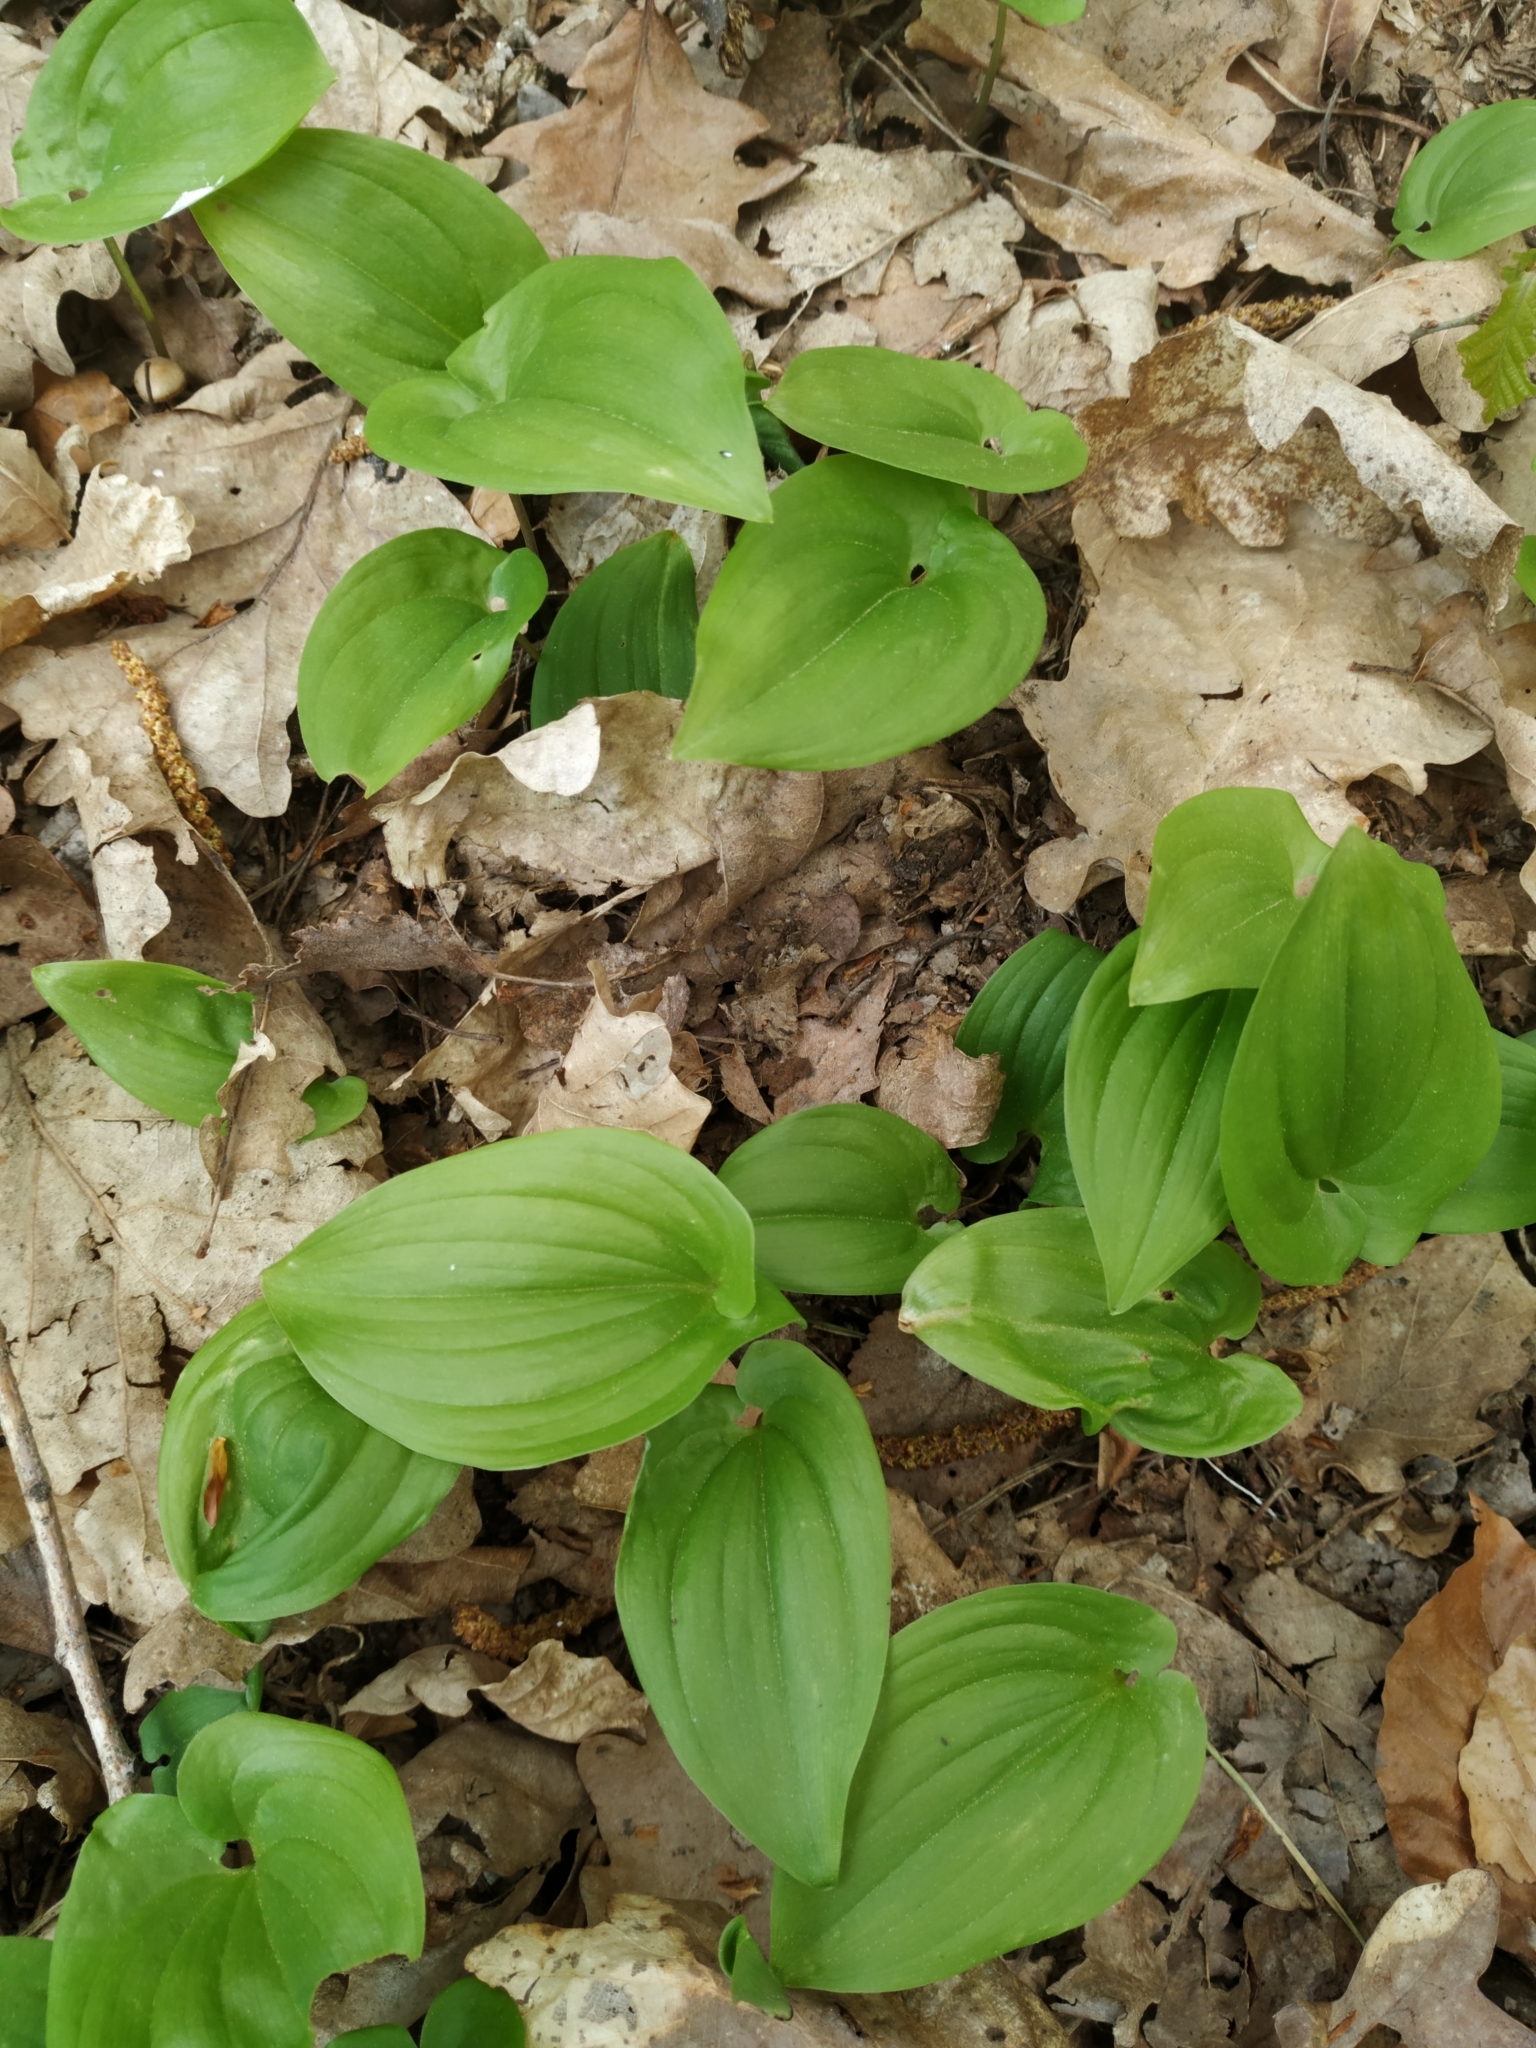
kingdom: Plantae
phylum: Tracheophyta
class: Liliopsida
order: Asparagales
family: Asparagaceae
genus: Maianthemum
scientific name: Maianthemum bifolium
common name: May lily
